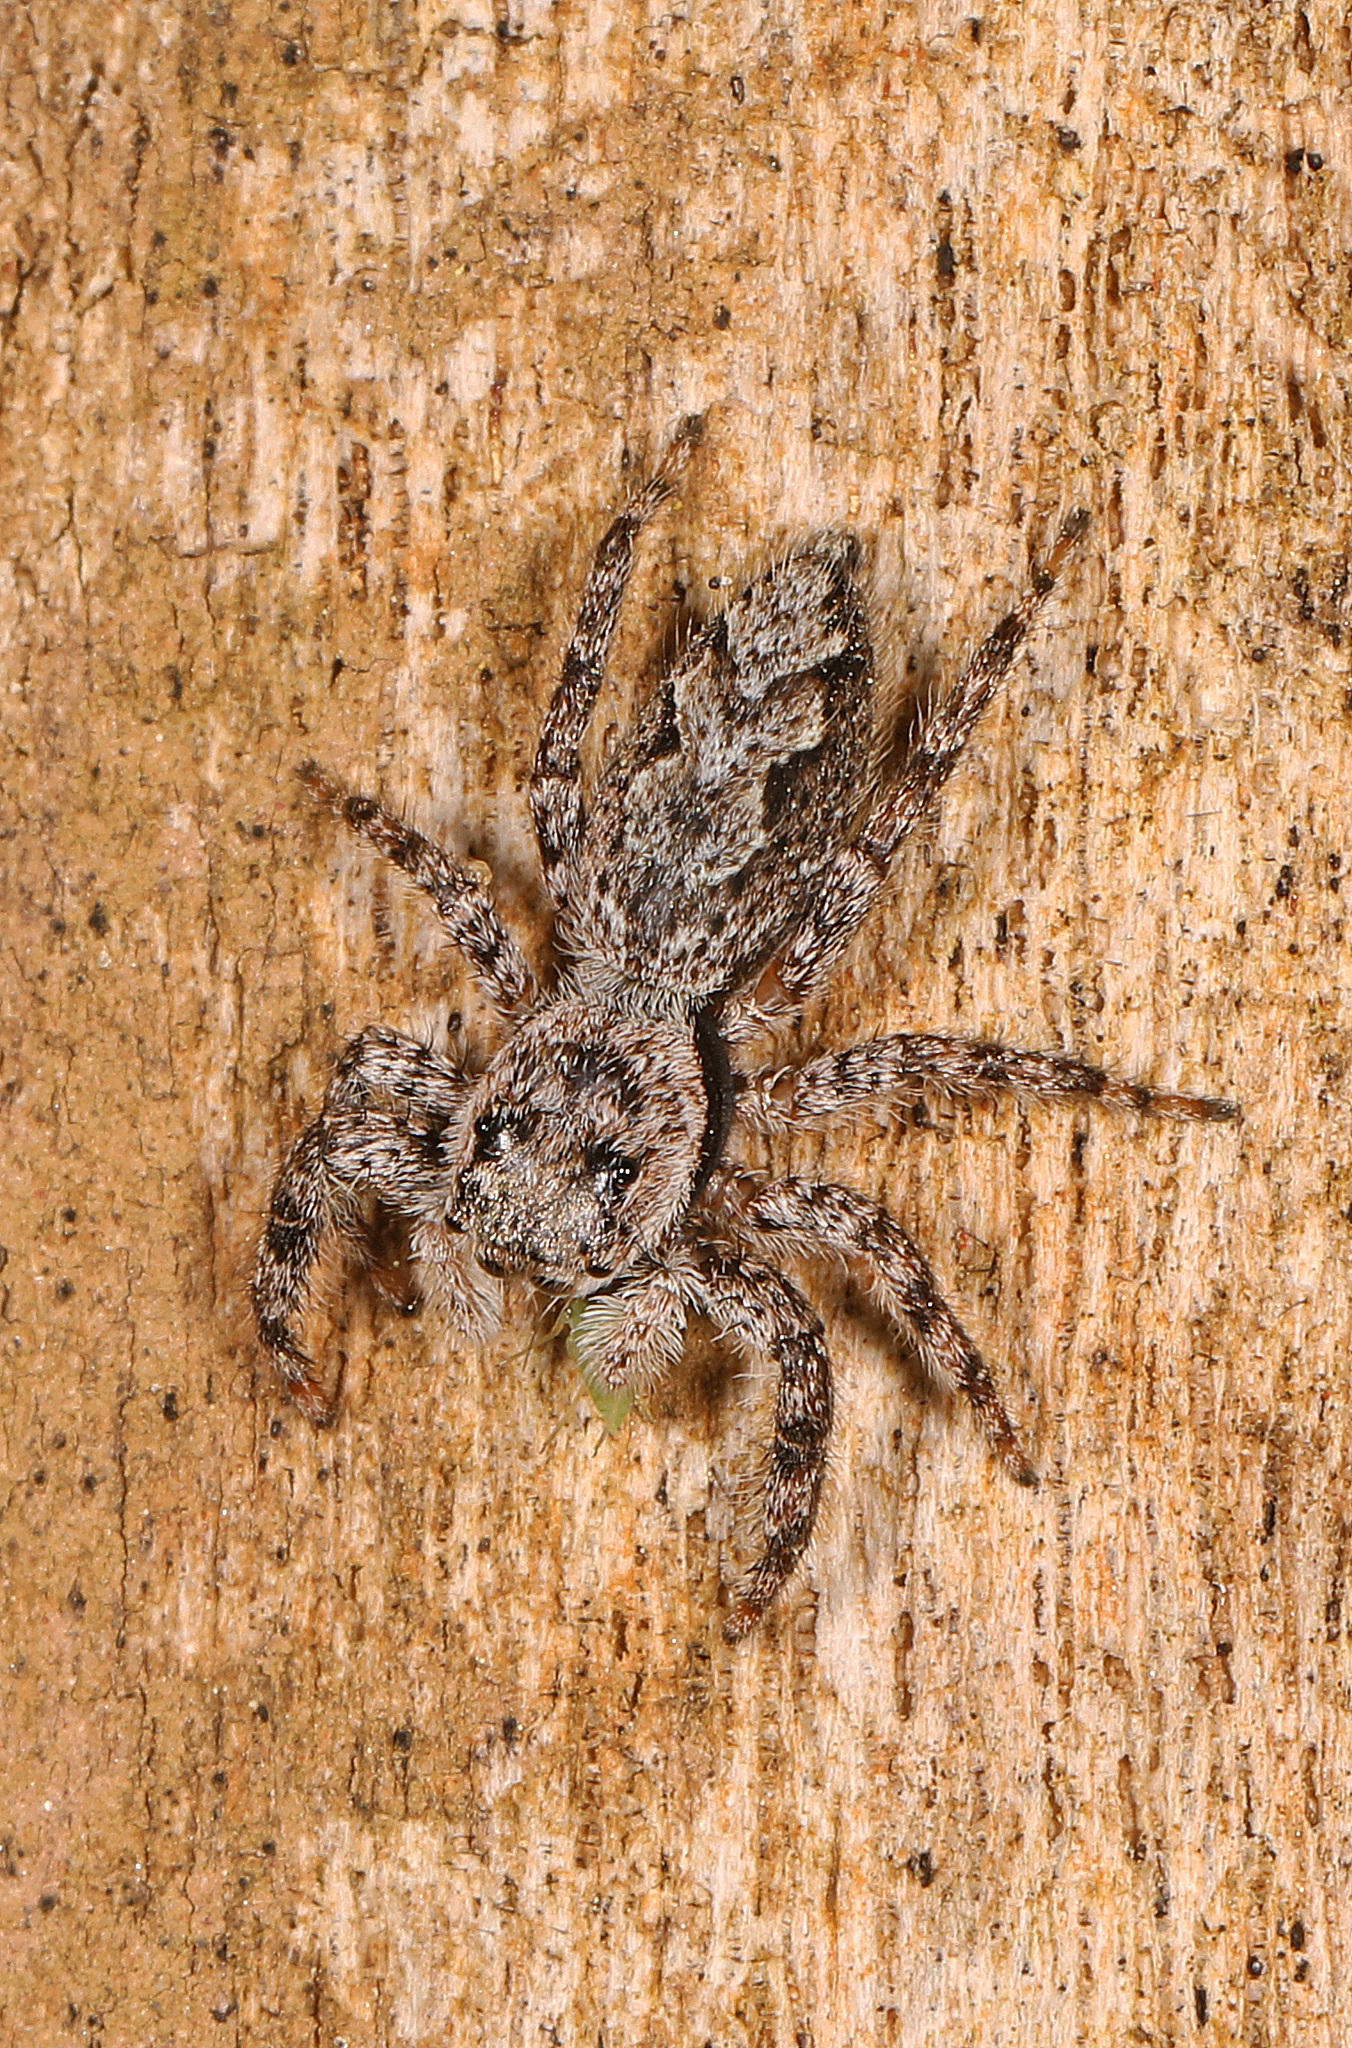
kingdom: Animalia
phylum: Arthropoda
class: Arachnida
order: Araneae
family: Salticidae
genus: Platycryptus
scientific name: Platycryptus undatus
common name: Tan jumping spider
